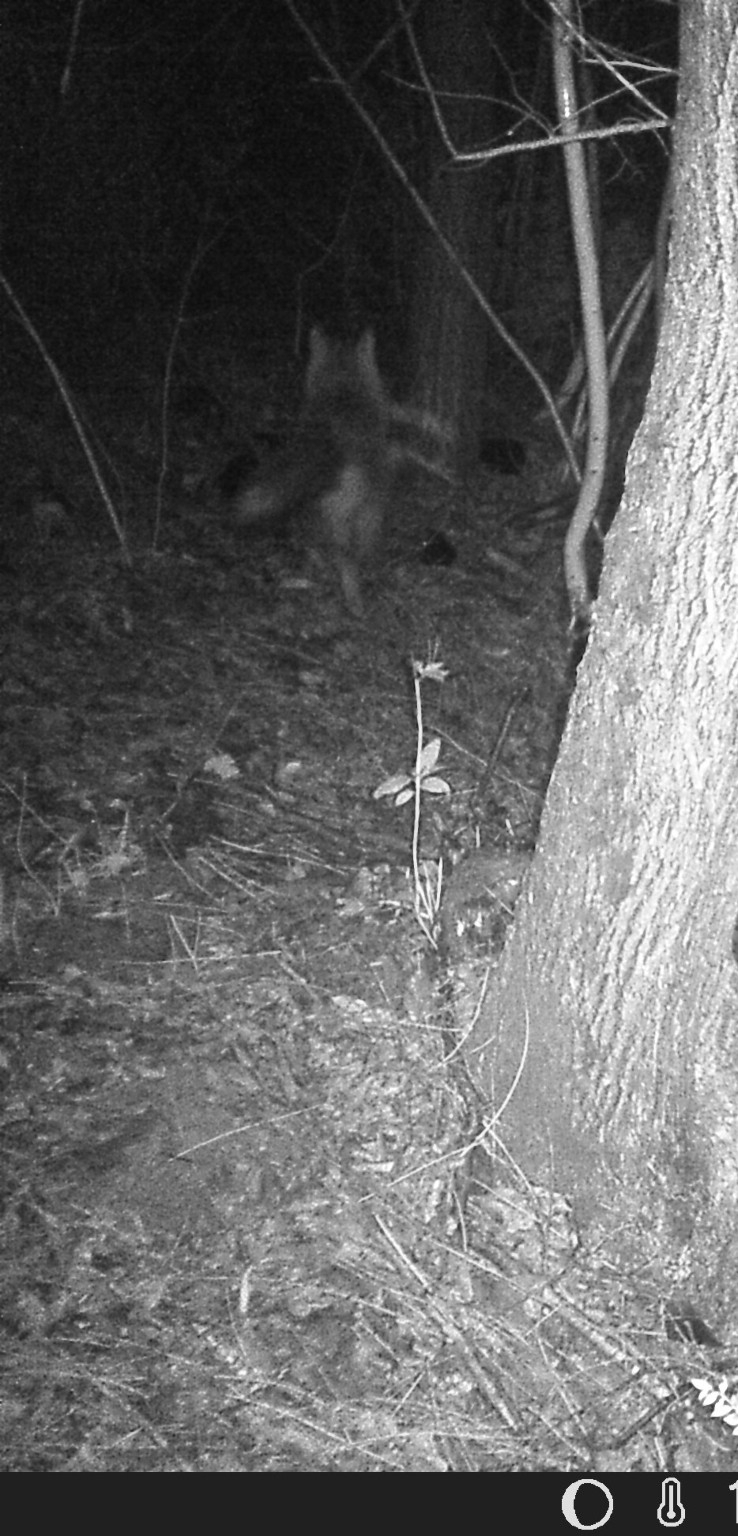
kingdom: Animalia
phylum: Chordata
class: Mammalia
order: Carnivora
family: Canidae
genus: Vulpes
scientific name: Vulpes vulpes
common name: Red fox
